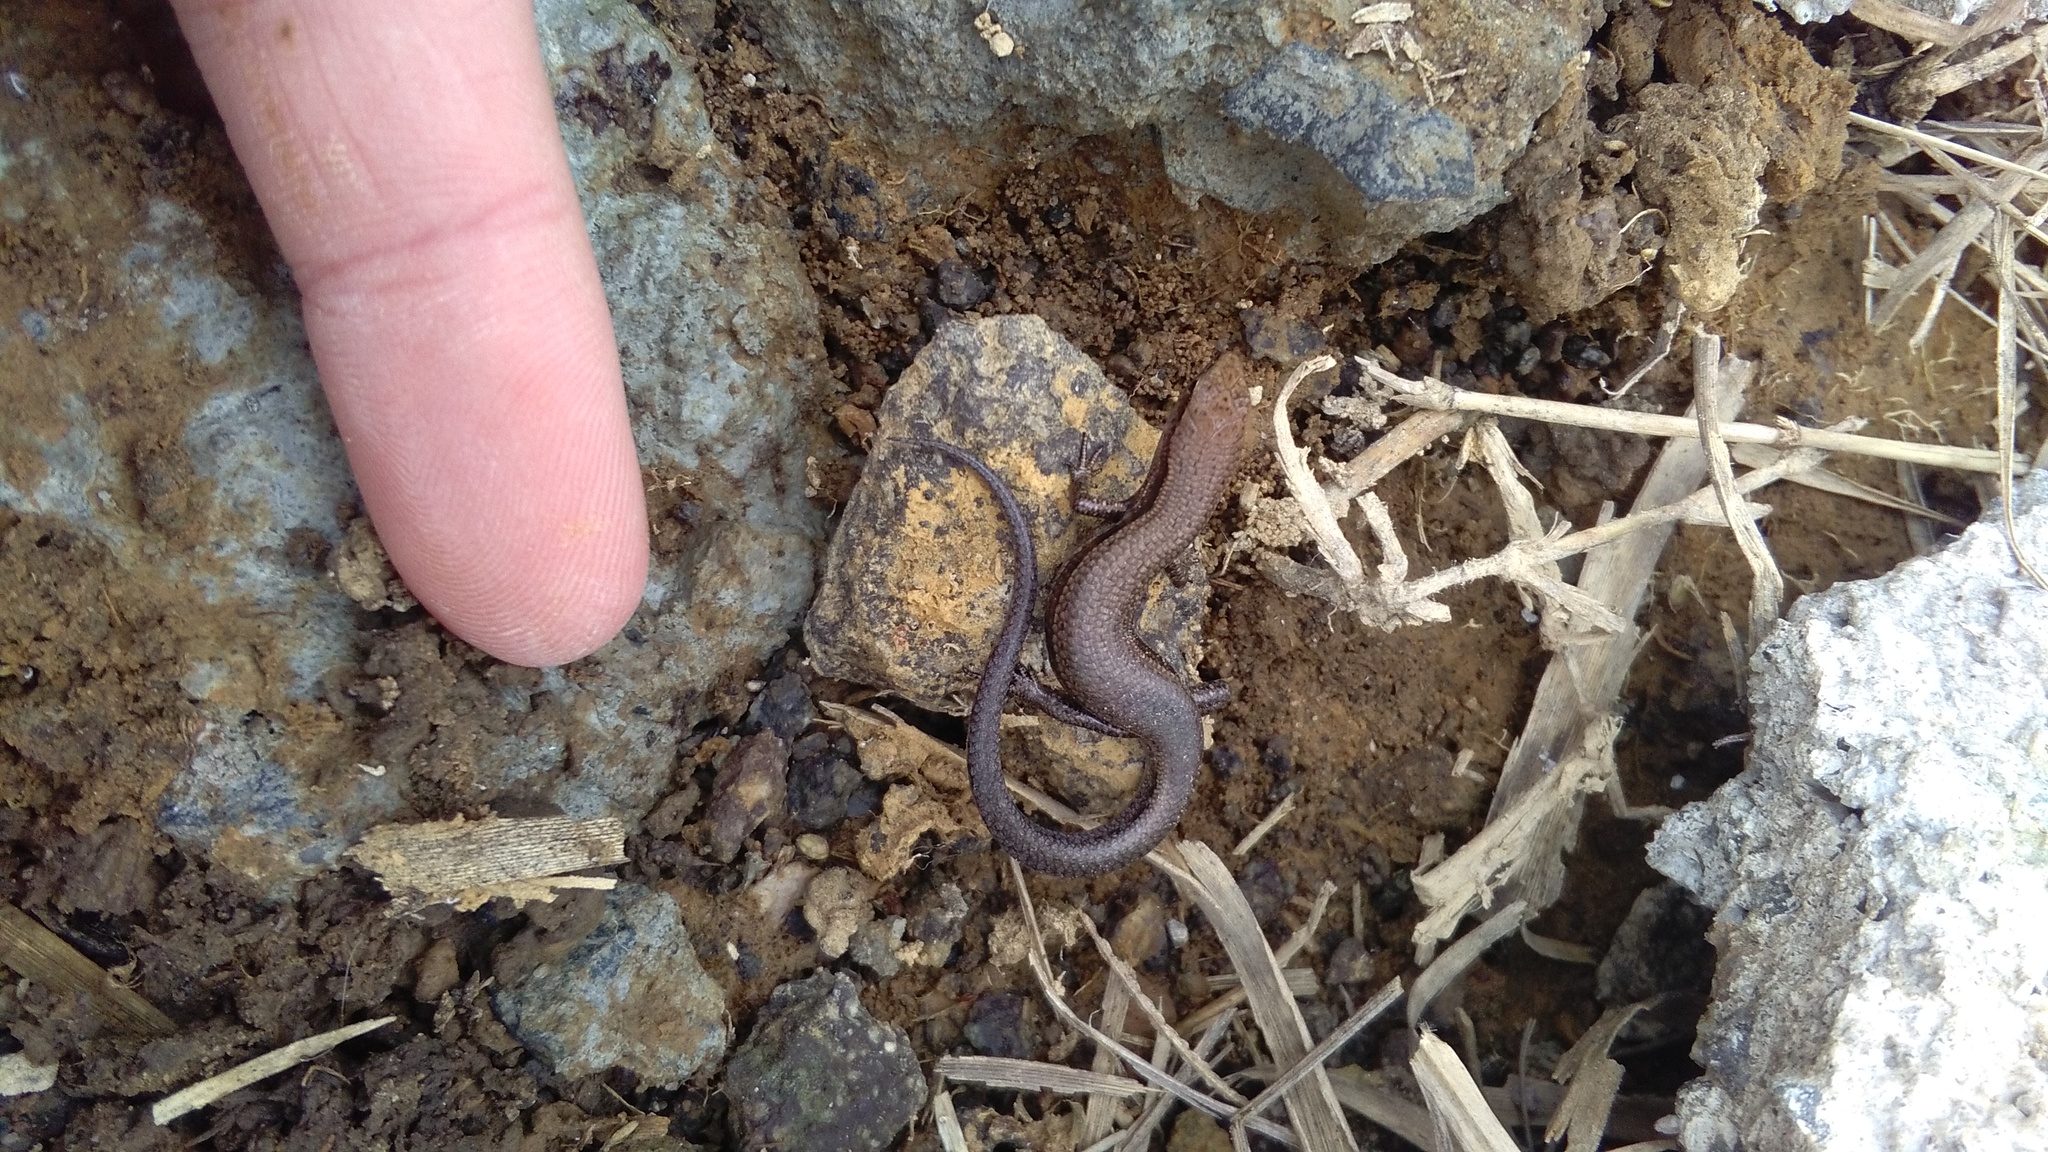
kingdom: Animalia
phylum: Chordata
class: Squamata
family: Scincidae
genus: Lampropholis
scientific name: Lampropholis delicata
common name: Plague skink
